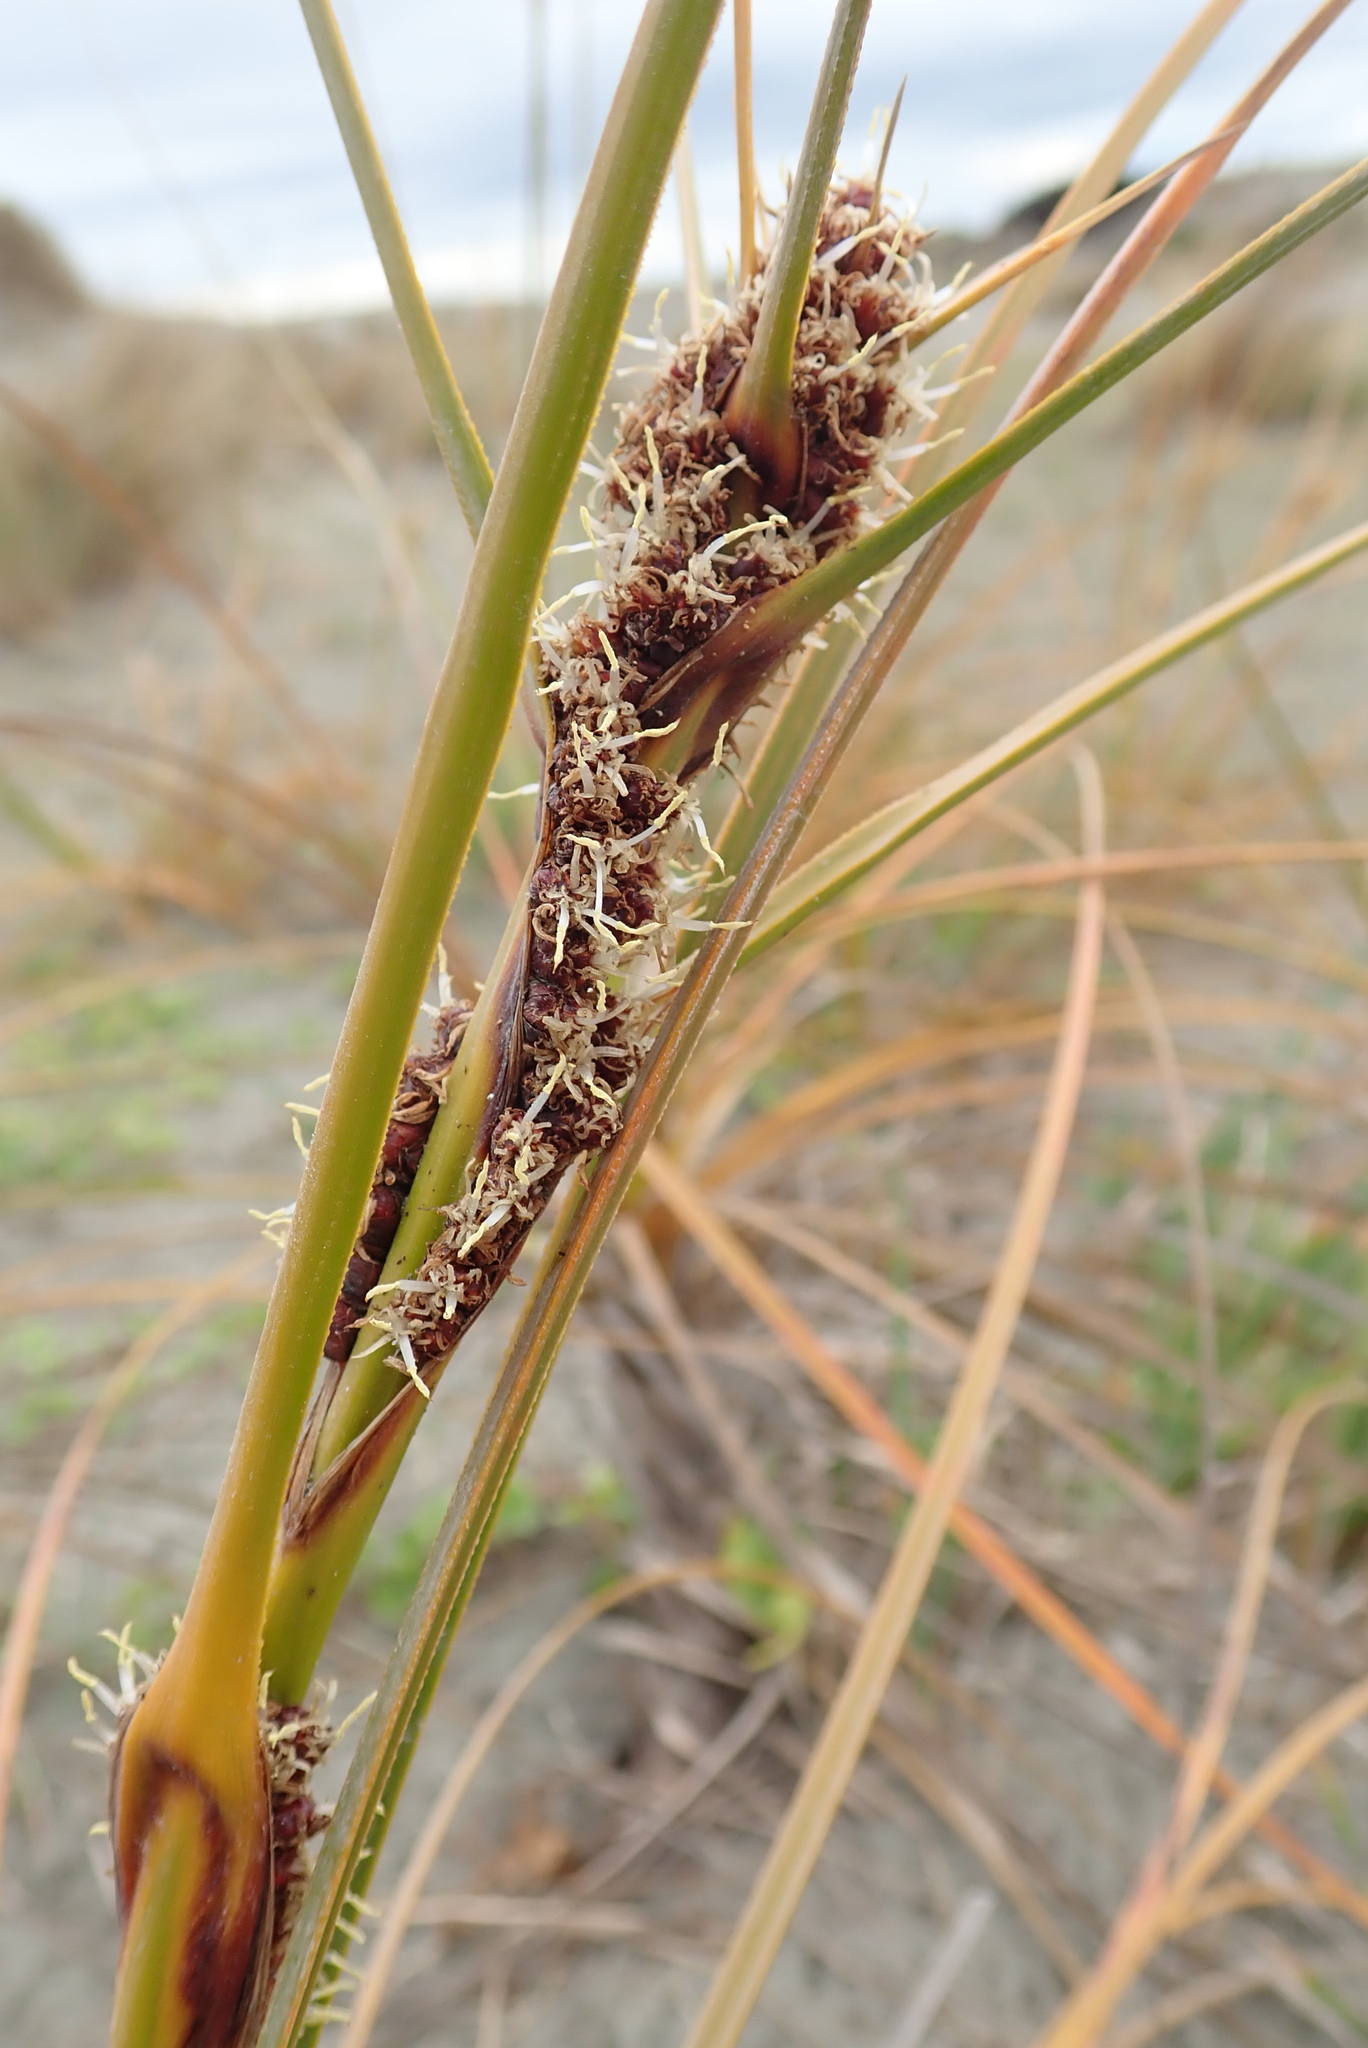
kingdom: Plantae
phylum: Tracheophyta
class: Liliopsida
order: Poales
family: Cyperaceae
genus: Ficinia
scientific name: Ficinia spiralis
